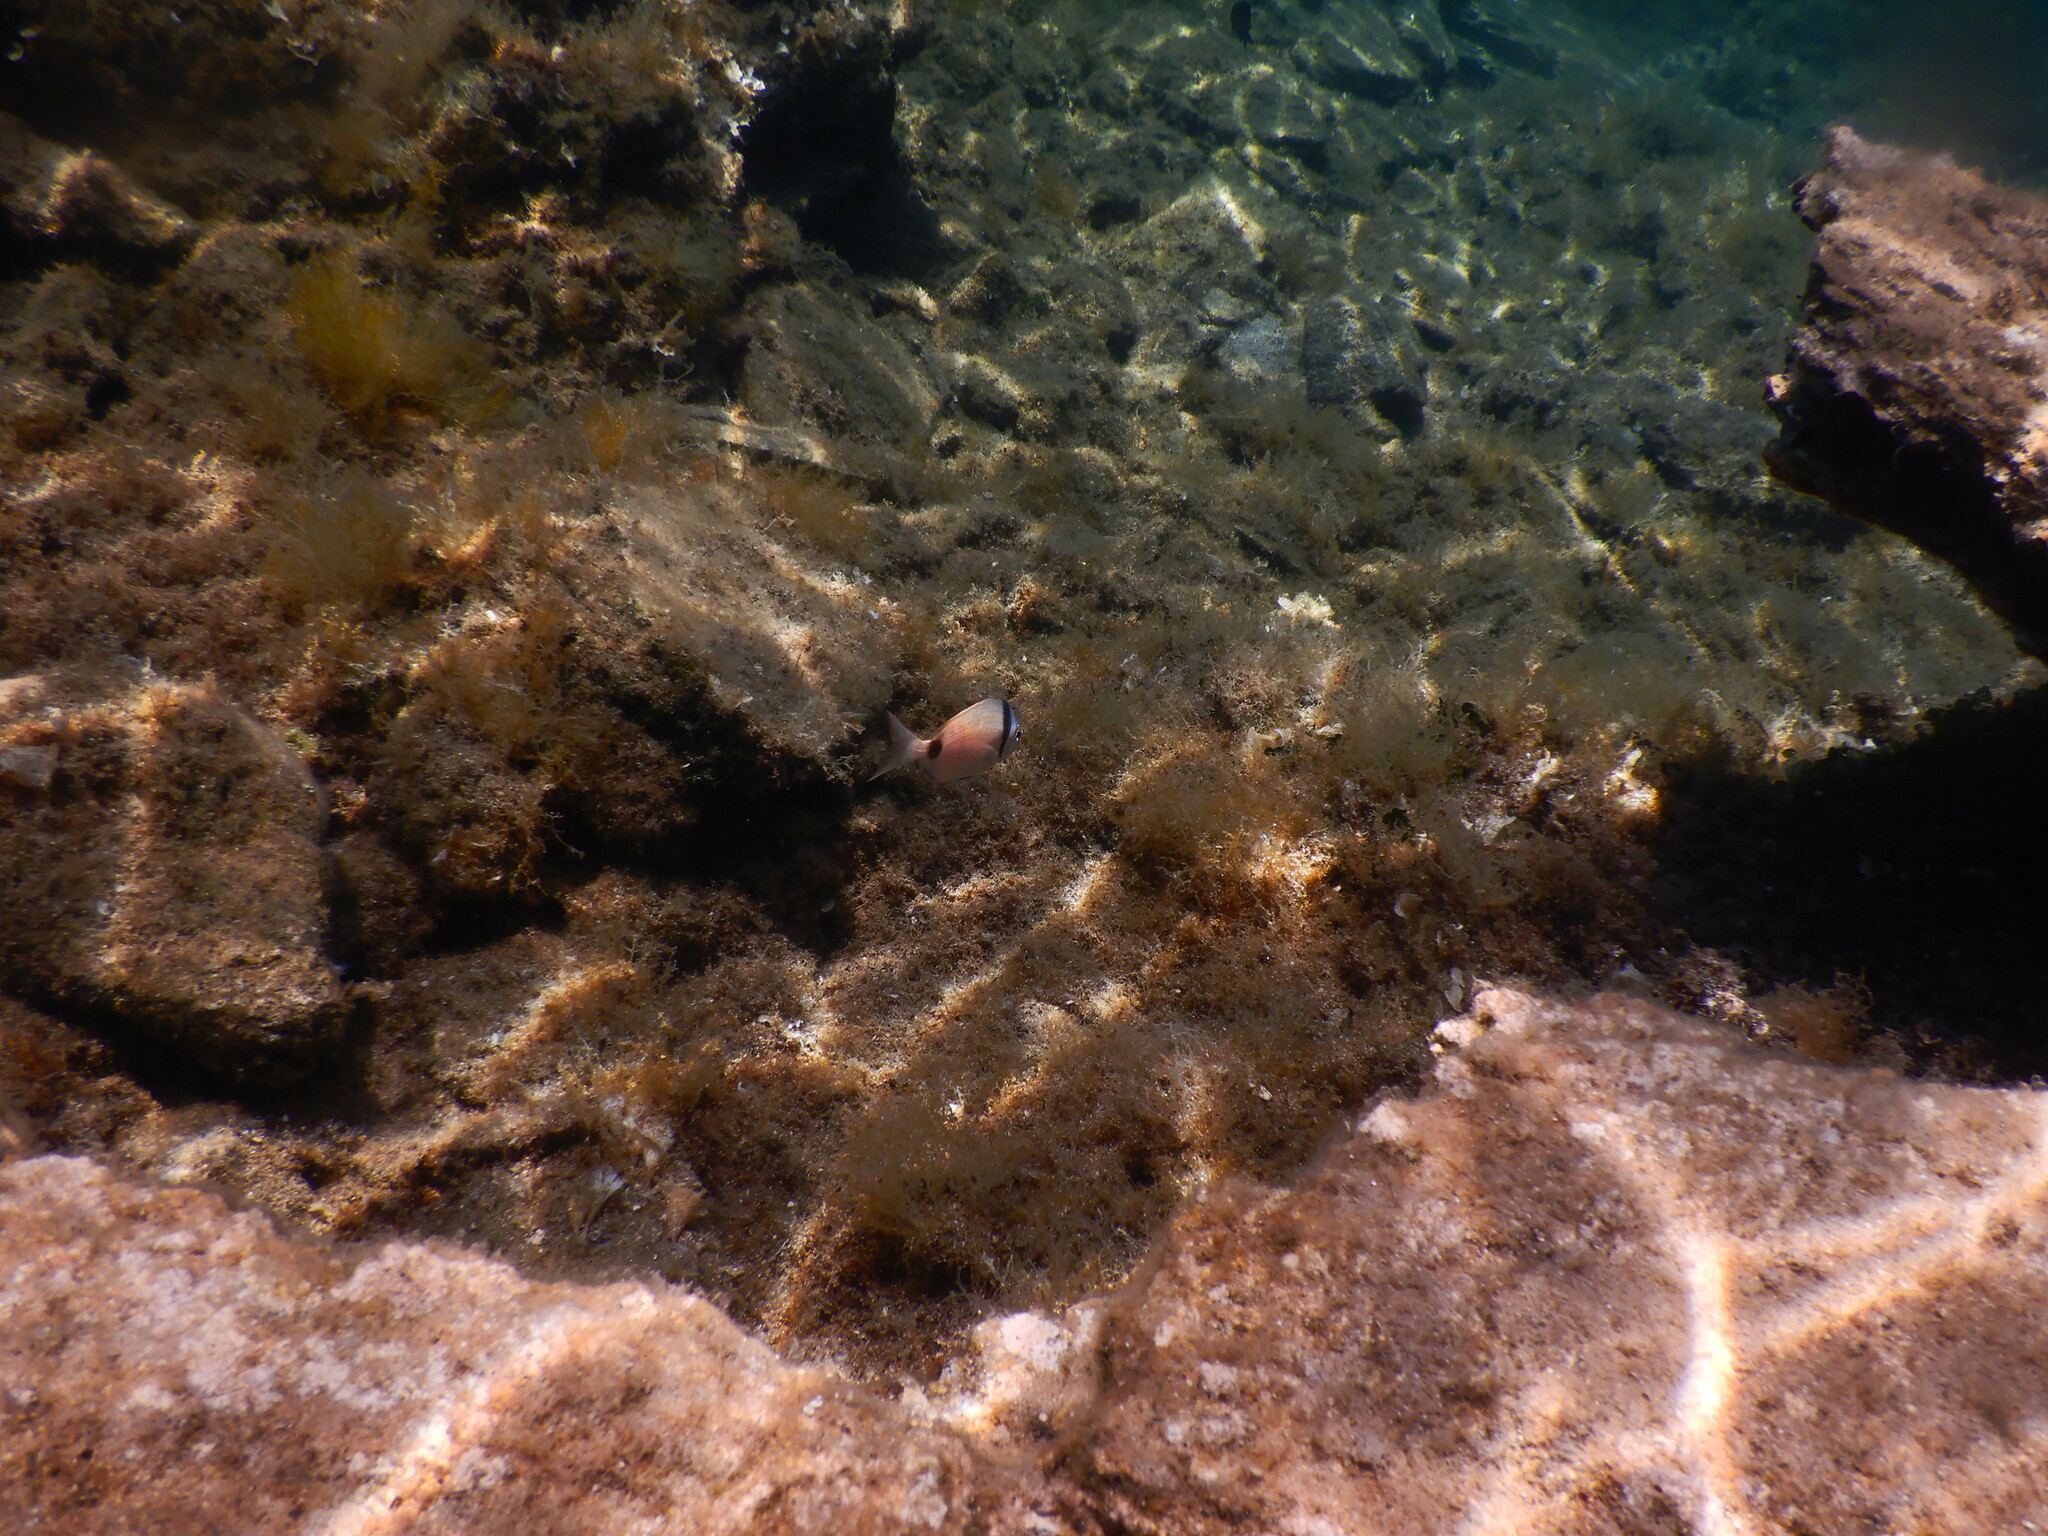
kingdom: Animalia
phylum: Chordata
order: Perciformes
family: Sparidae
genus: Diplodus
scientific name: Diplodus vulgaris
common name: Common two-banded seabream
